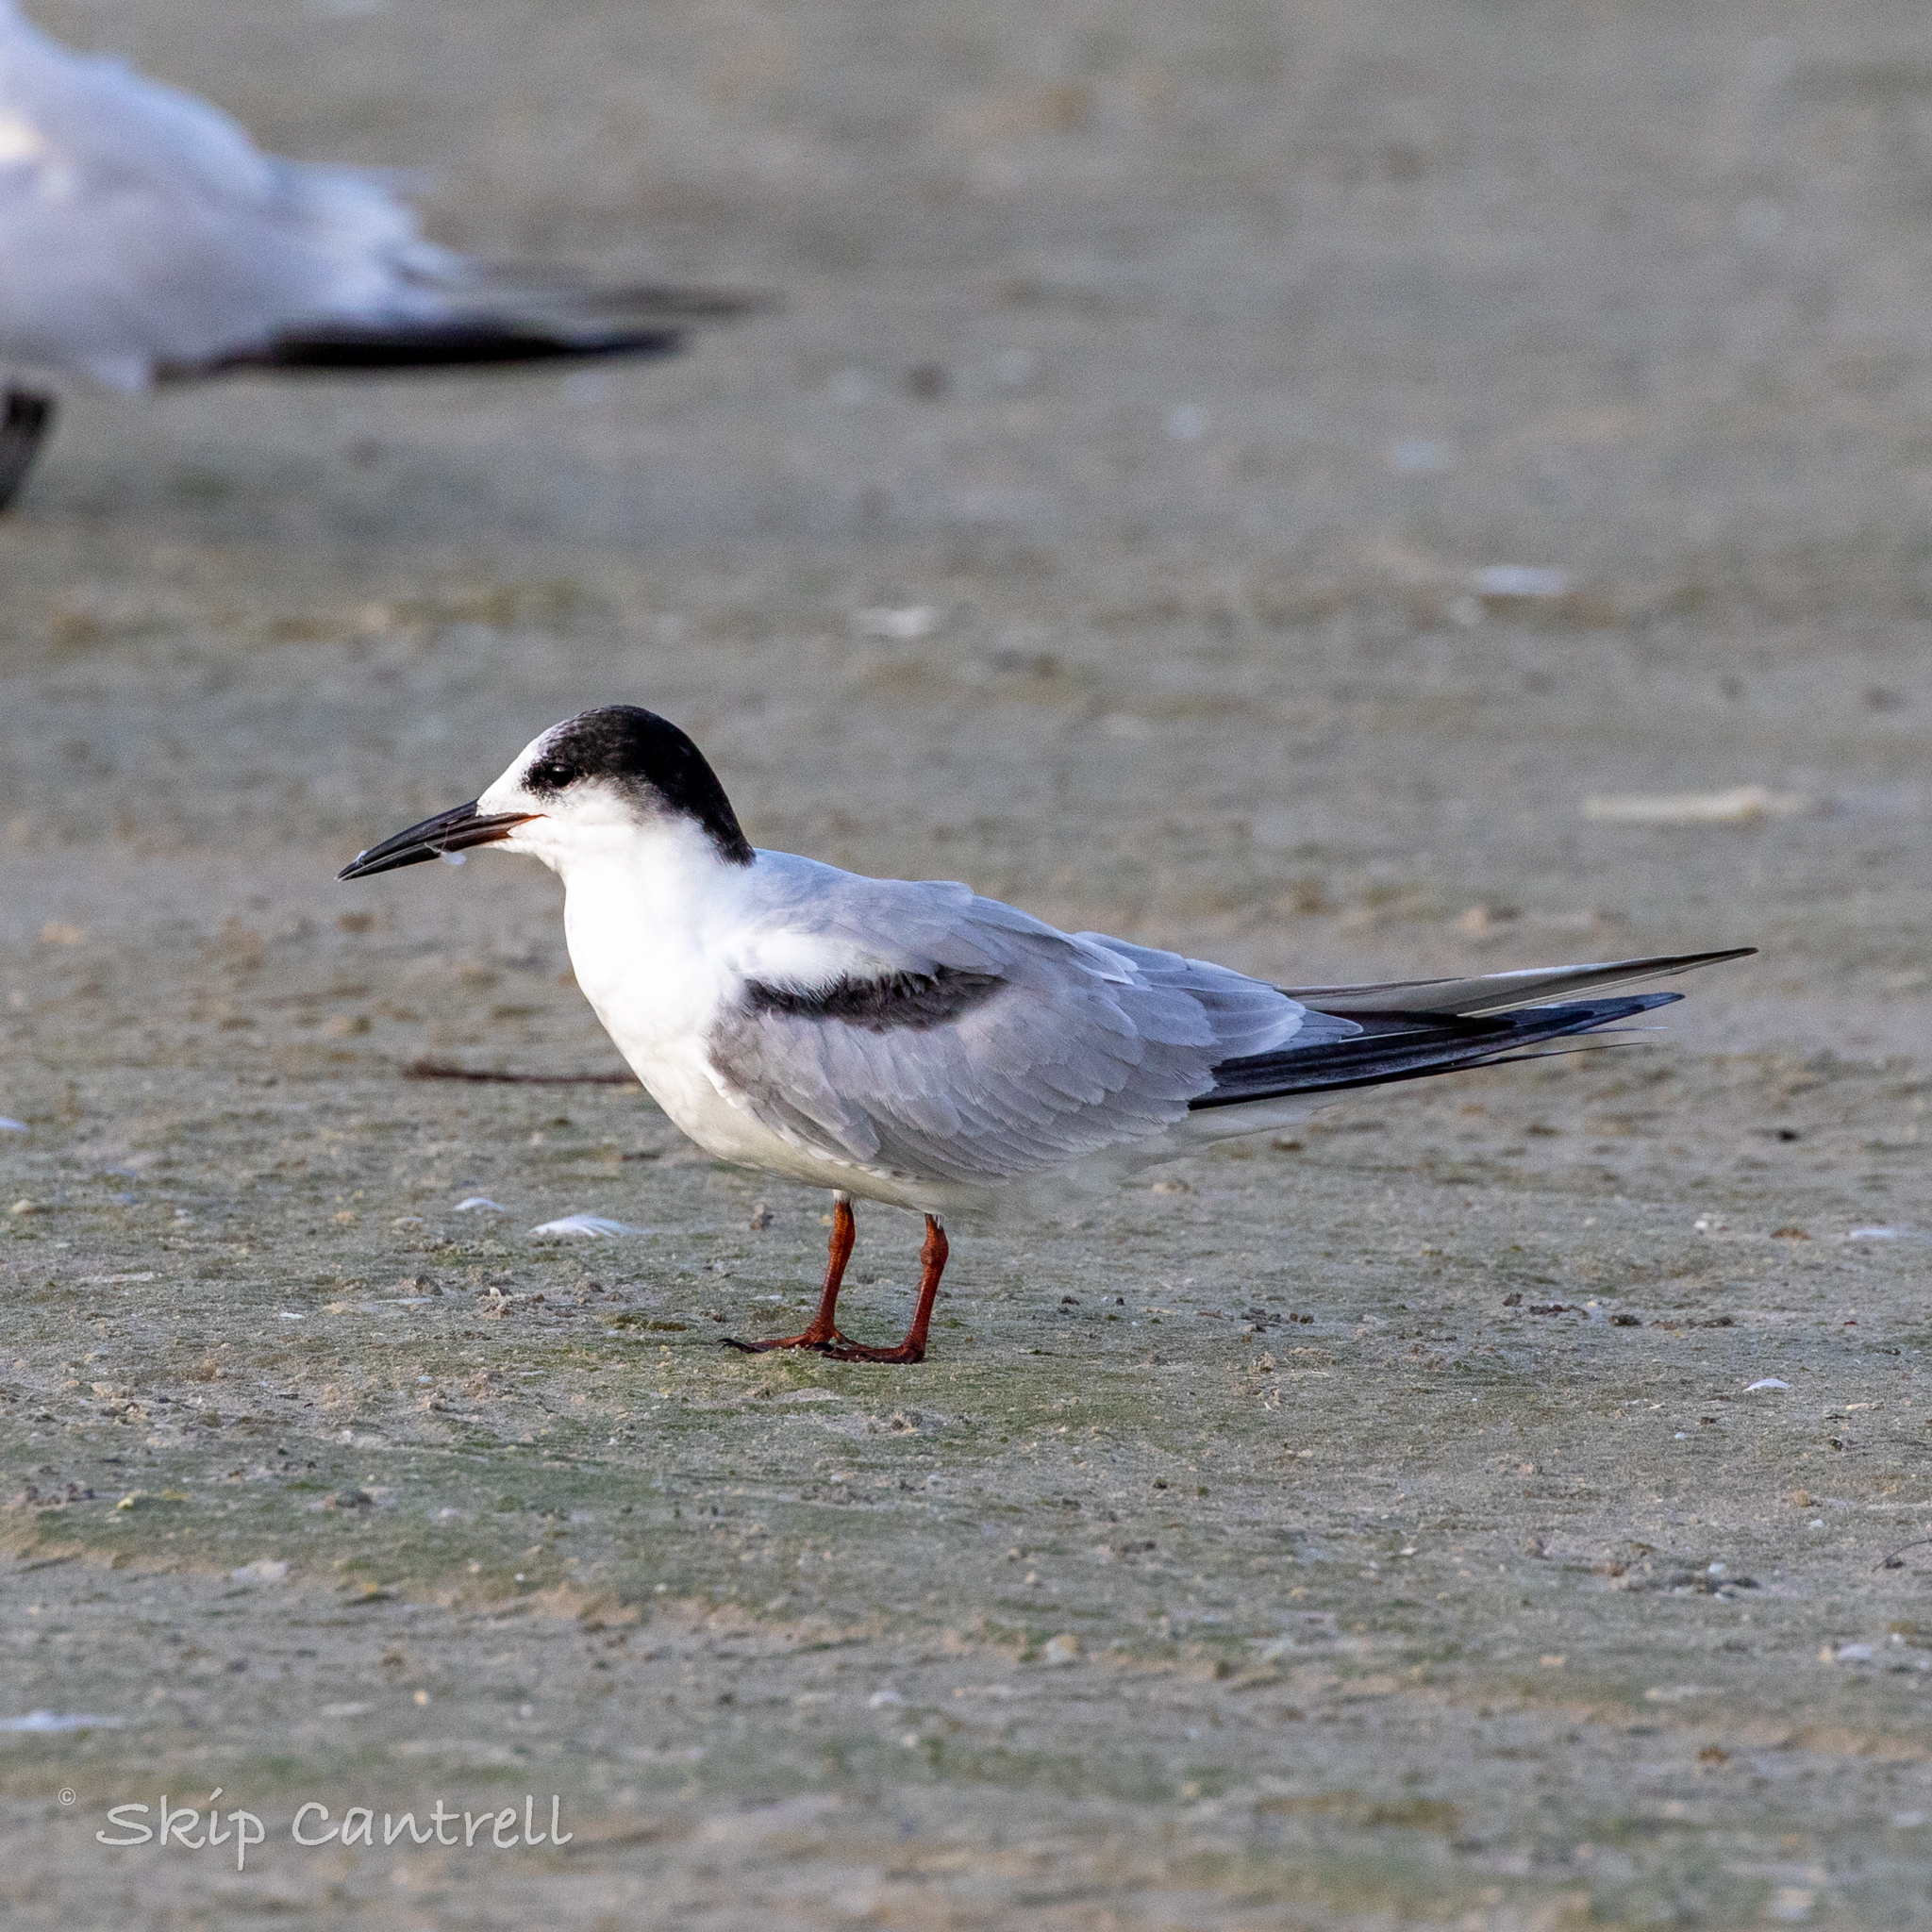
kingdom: Animalia
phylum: Chordata
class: Aves
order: Charadriiformes
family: Laridae
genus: Sterna
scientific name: Sterna hirundo
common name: Common tern
